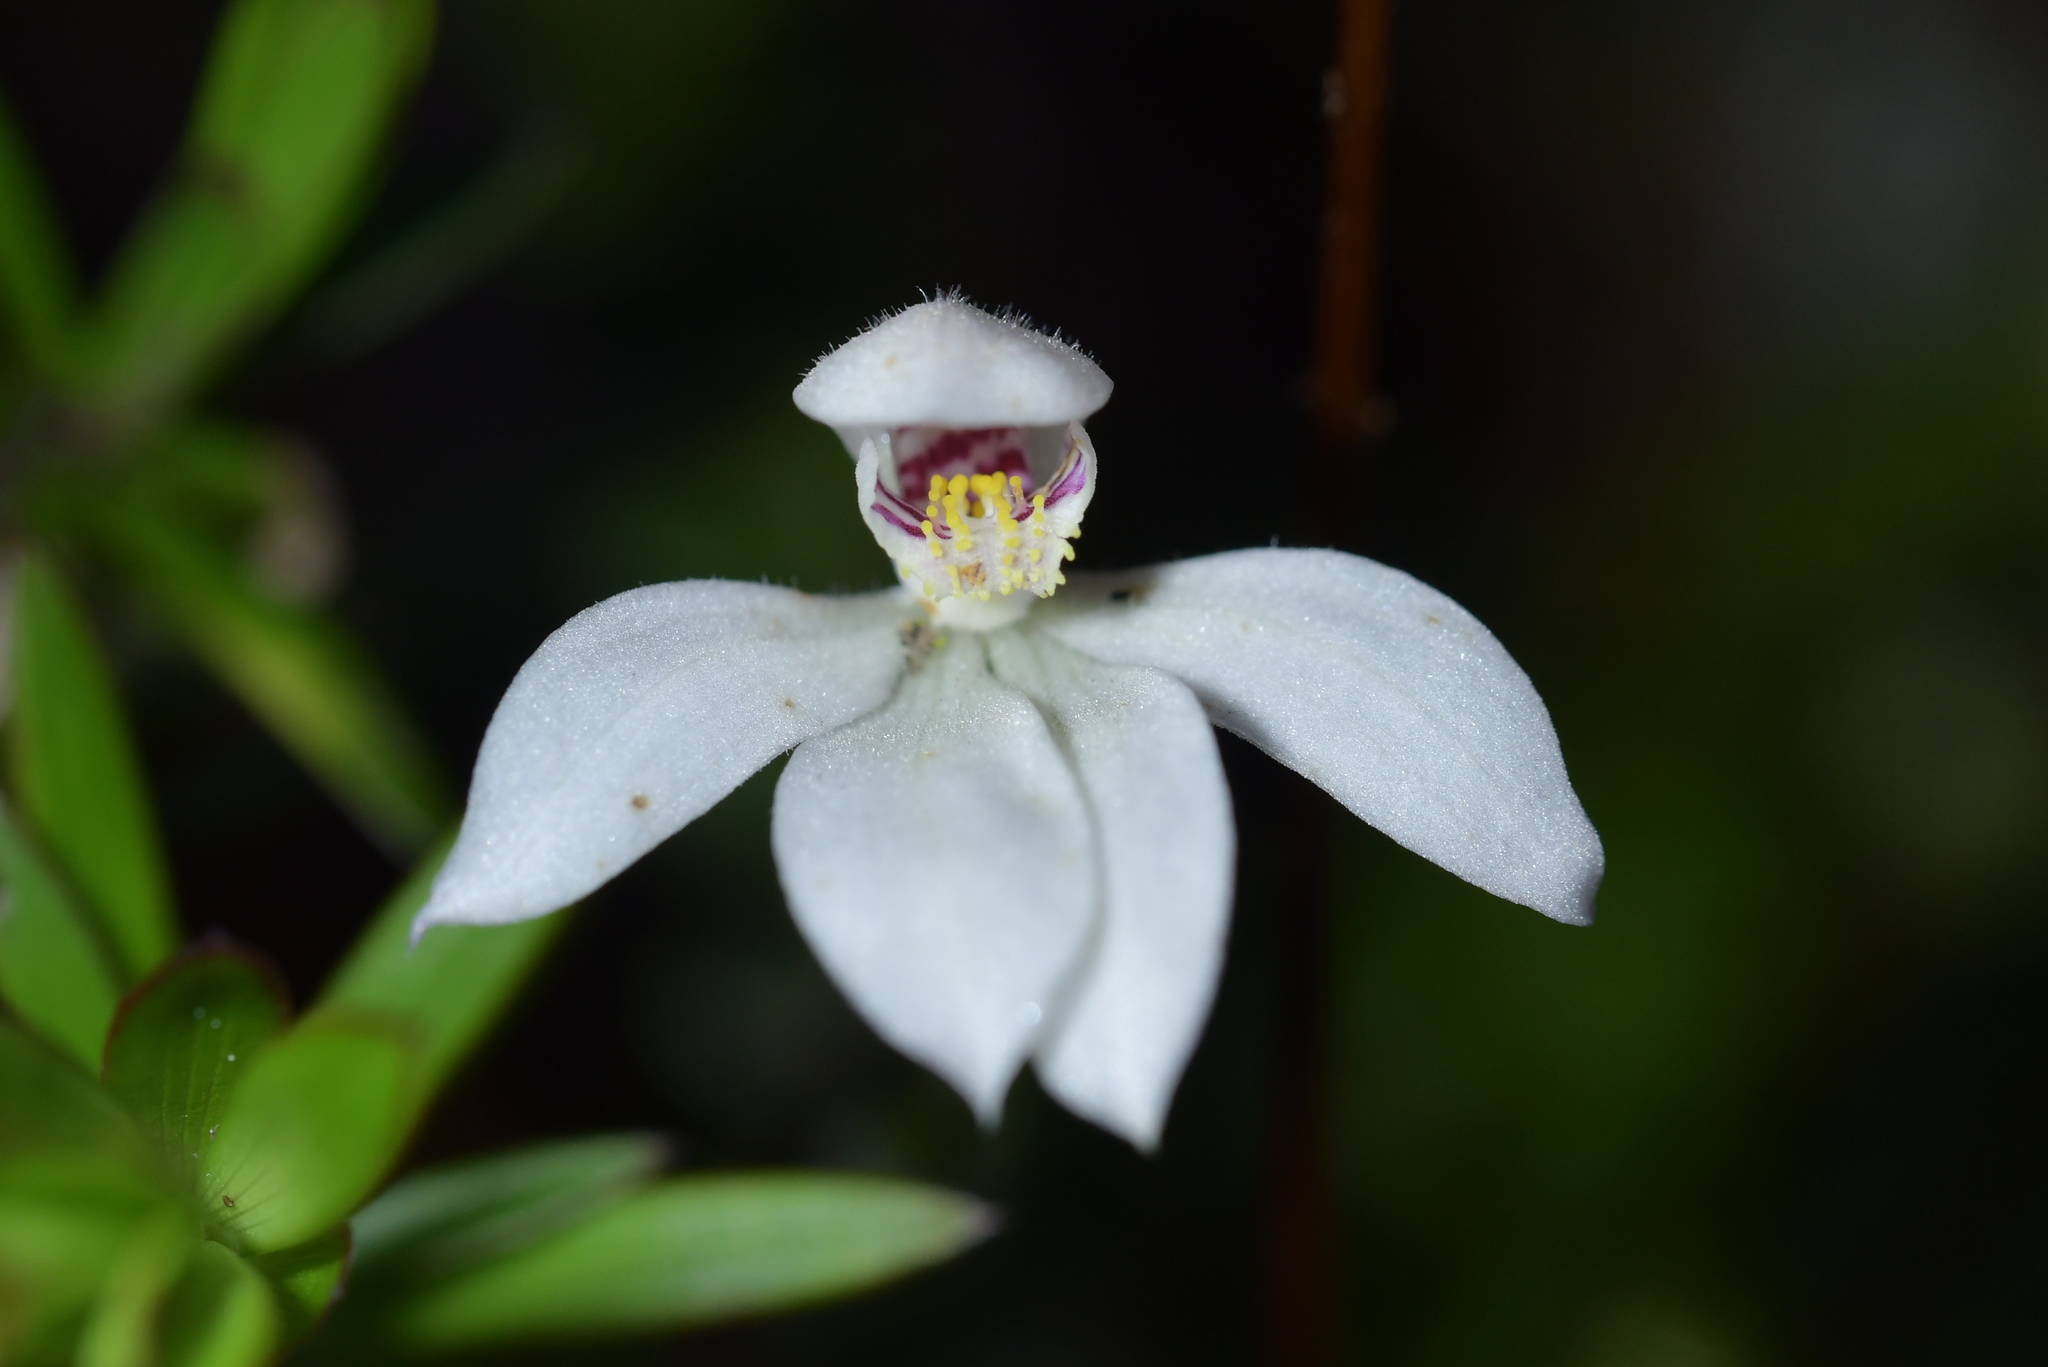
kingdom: Plantae
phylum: Tracheophyta
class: Liliopsida
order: Asparagales
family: Orchidaceae
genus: Caladenia
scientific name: Caladenia lyallii
